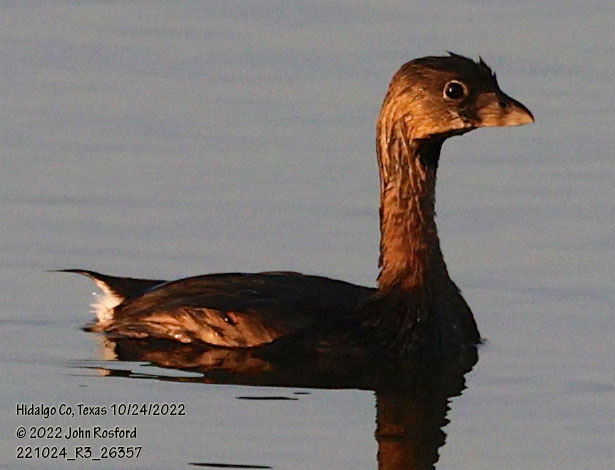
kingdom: Animalia
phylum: Chordata
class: Aves
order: Podicipediformes
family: Podicipedidae
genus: Podilymbus
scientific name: Podilymbus podiceps
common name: Pied-billed grebe
